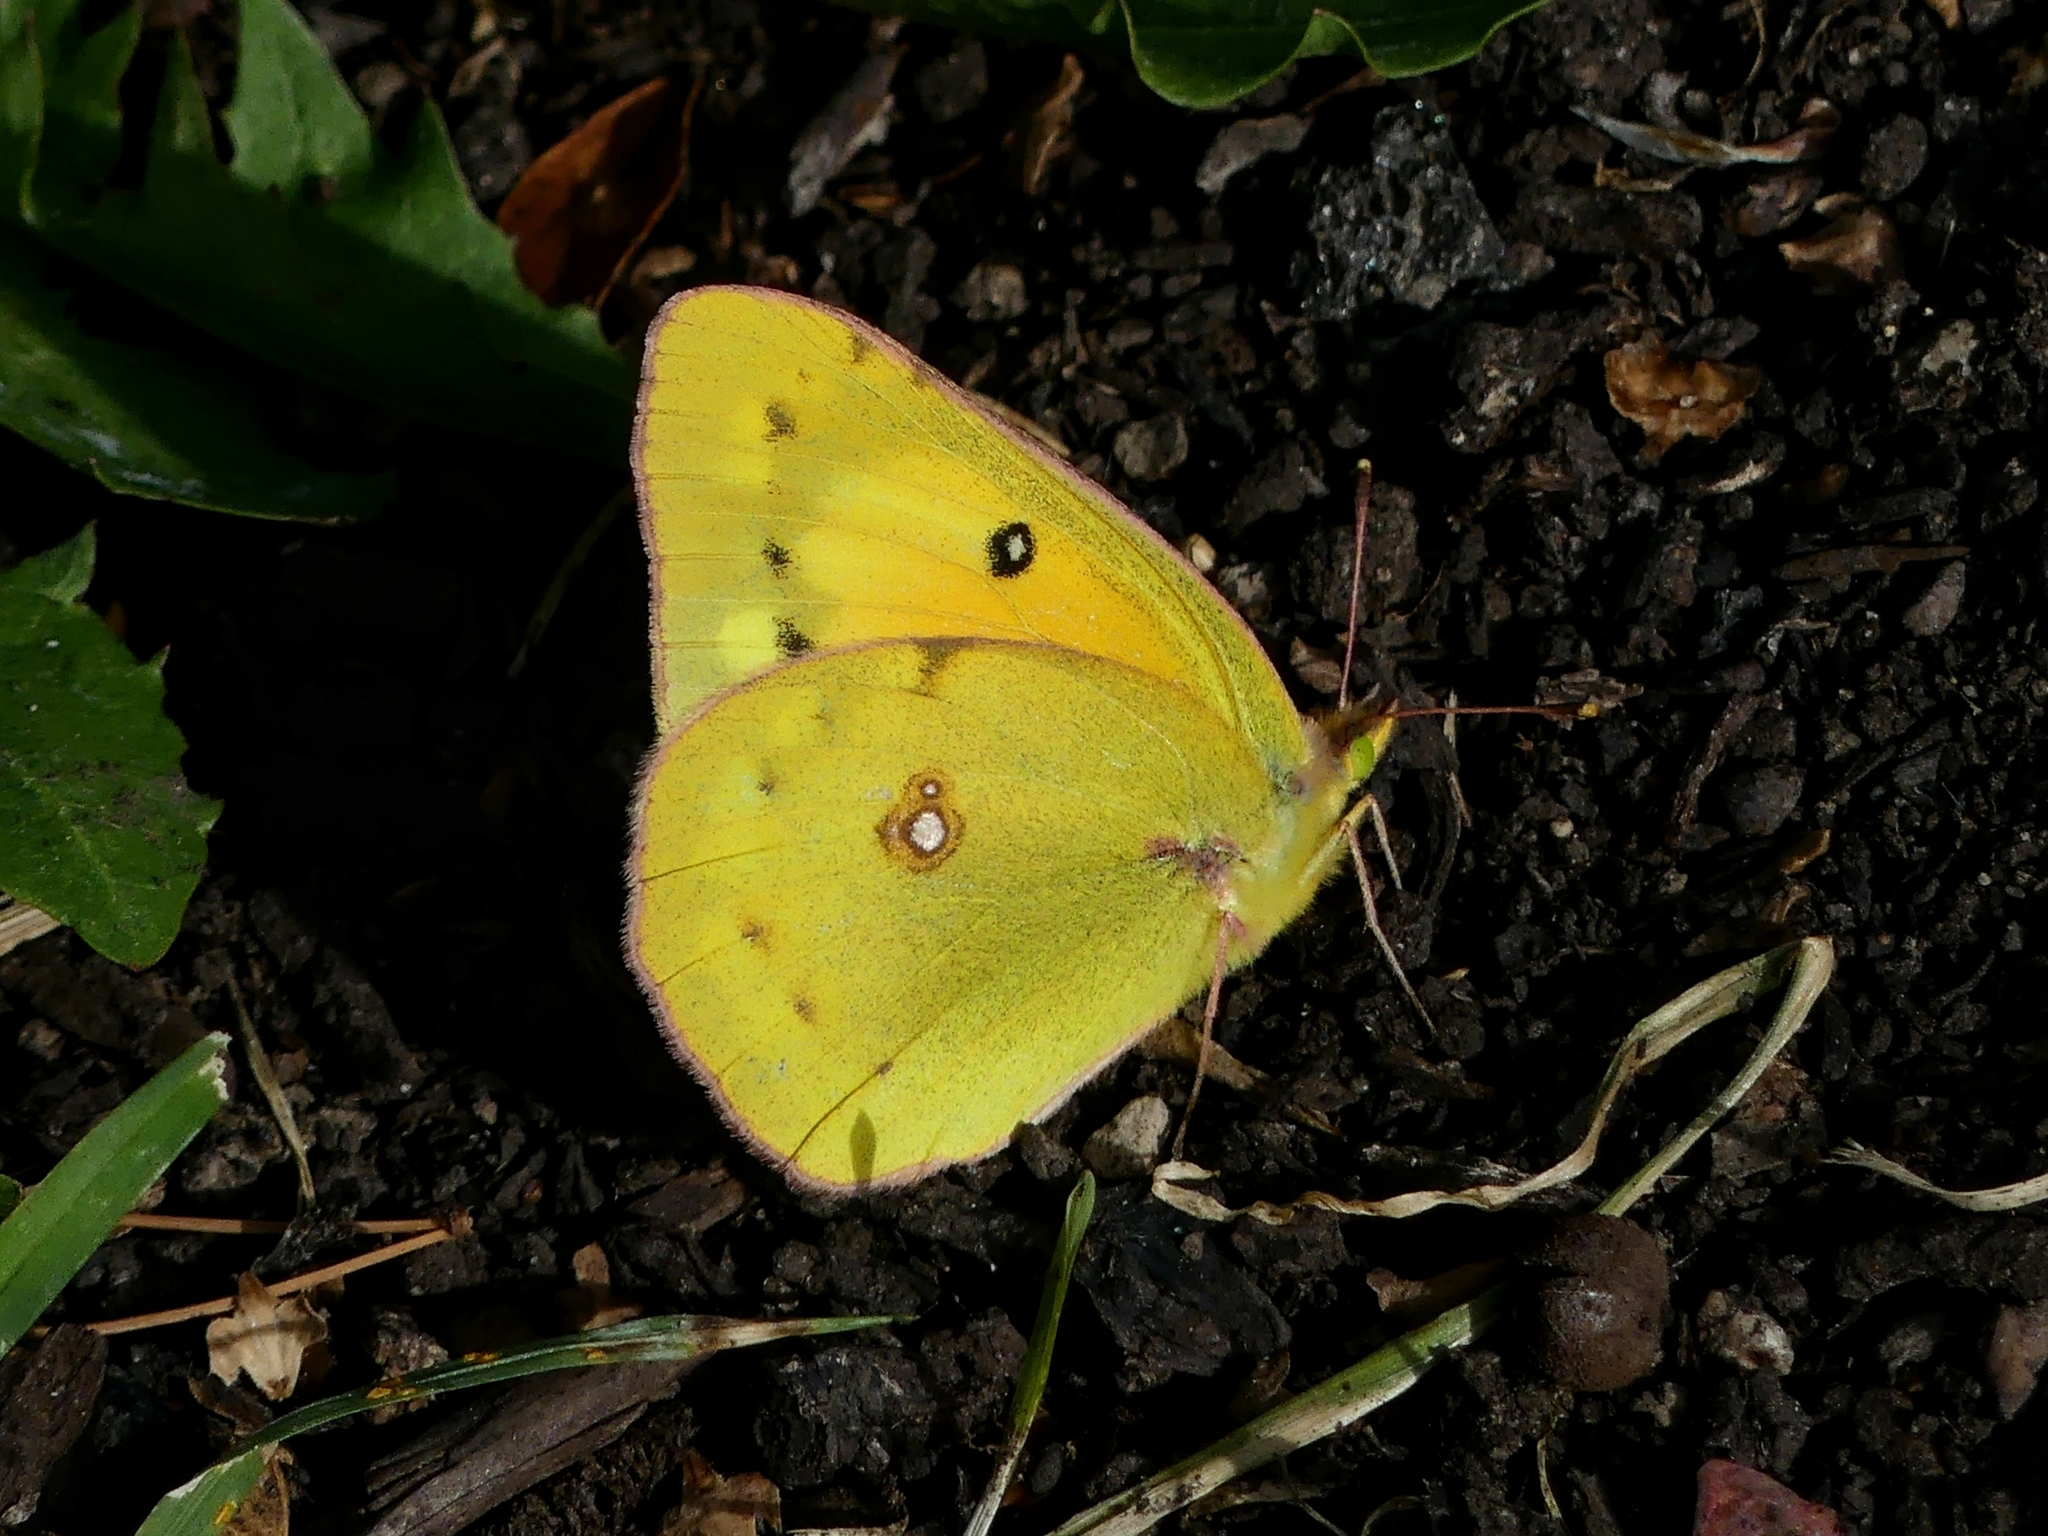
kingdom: Animalia
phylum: Arthropoda
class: Insecta
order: Lepidoptera
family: Pieridae
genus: Colias
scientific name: Colias eurytheme
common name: Alfalfa butterfly
